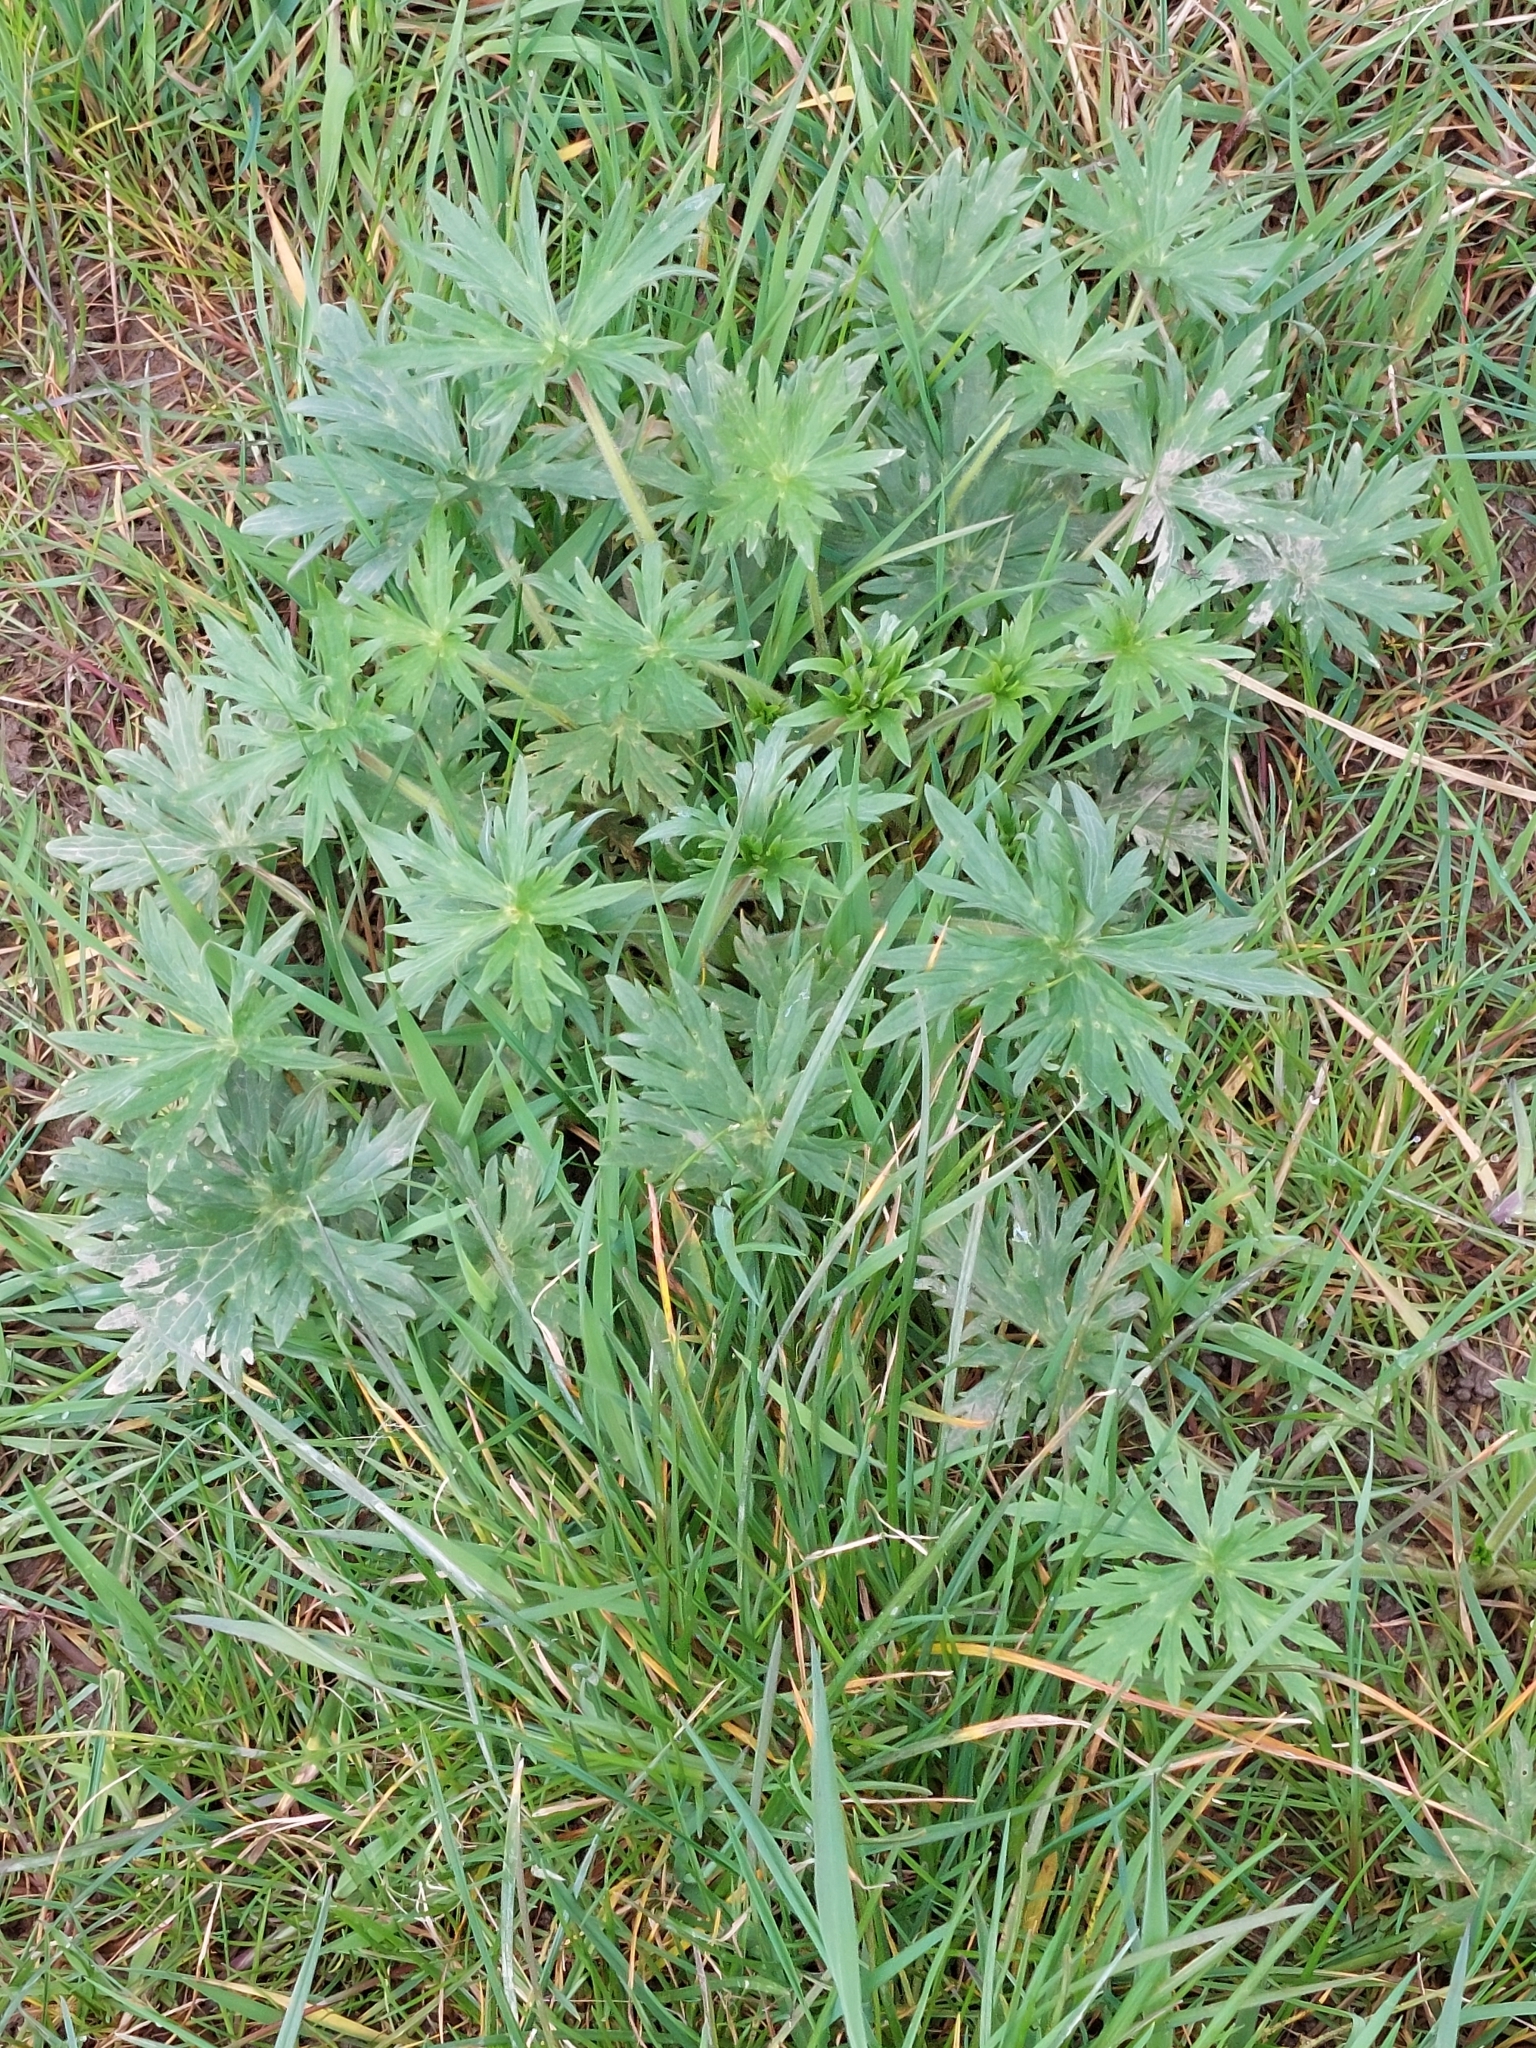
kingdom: Plantae
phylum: Tracheophyta
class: Magnoliopsida
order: Geraniales
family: Geraniaceae
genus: Geranium
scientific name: Geranium pratense
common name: Meadow crane's-bill
